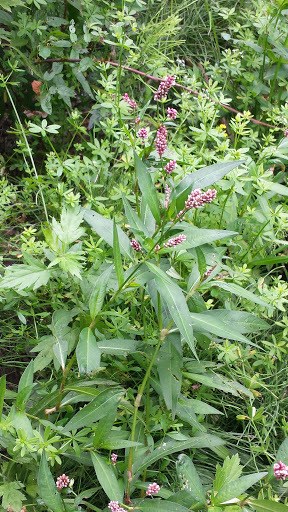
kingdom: Plantae
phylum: Tracheophyta
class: Magnoliopsida
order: Caryophyllales
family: Polygonaceae
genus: Persicaria
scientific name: Persicaria maculosa
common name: Redshank
